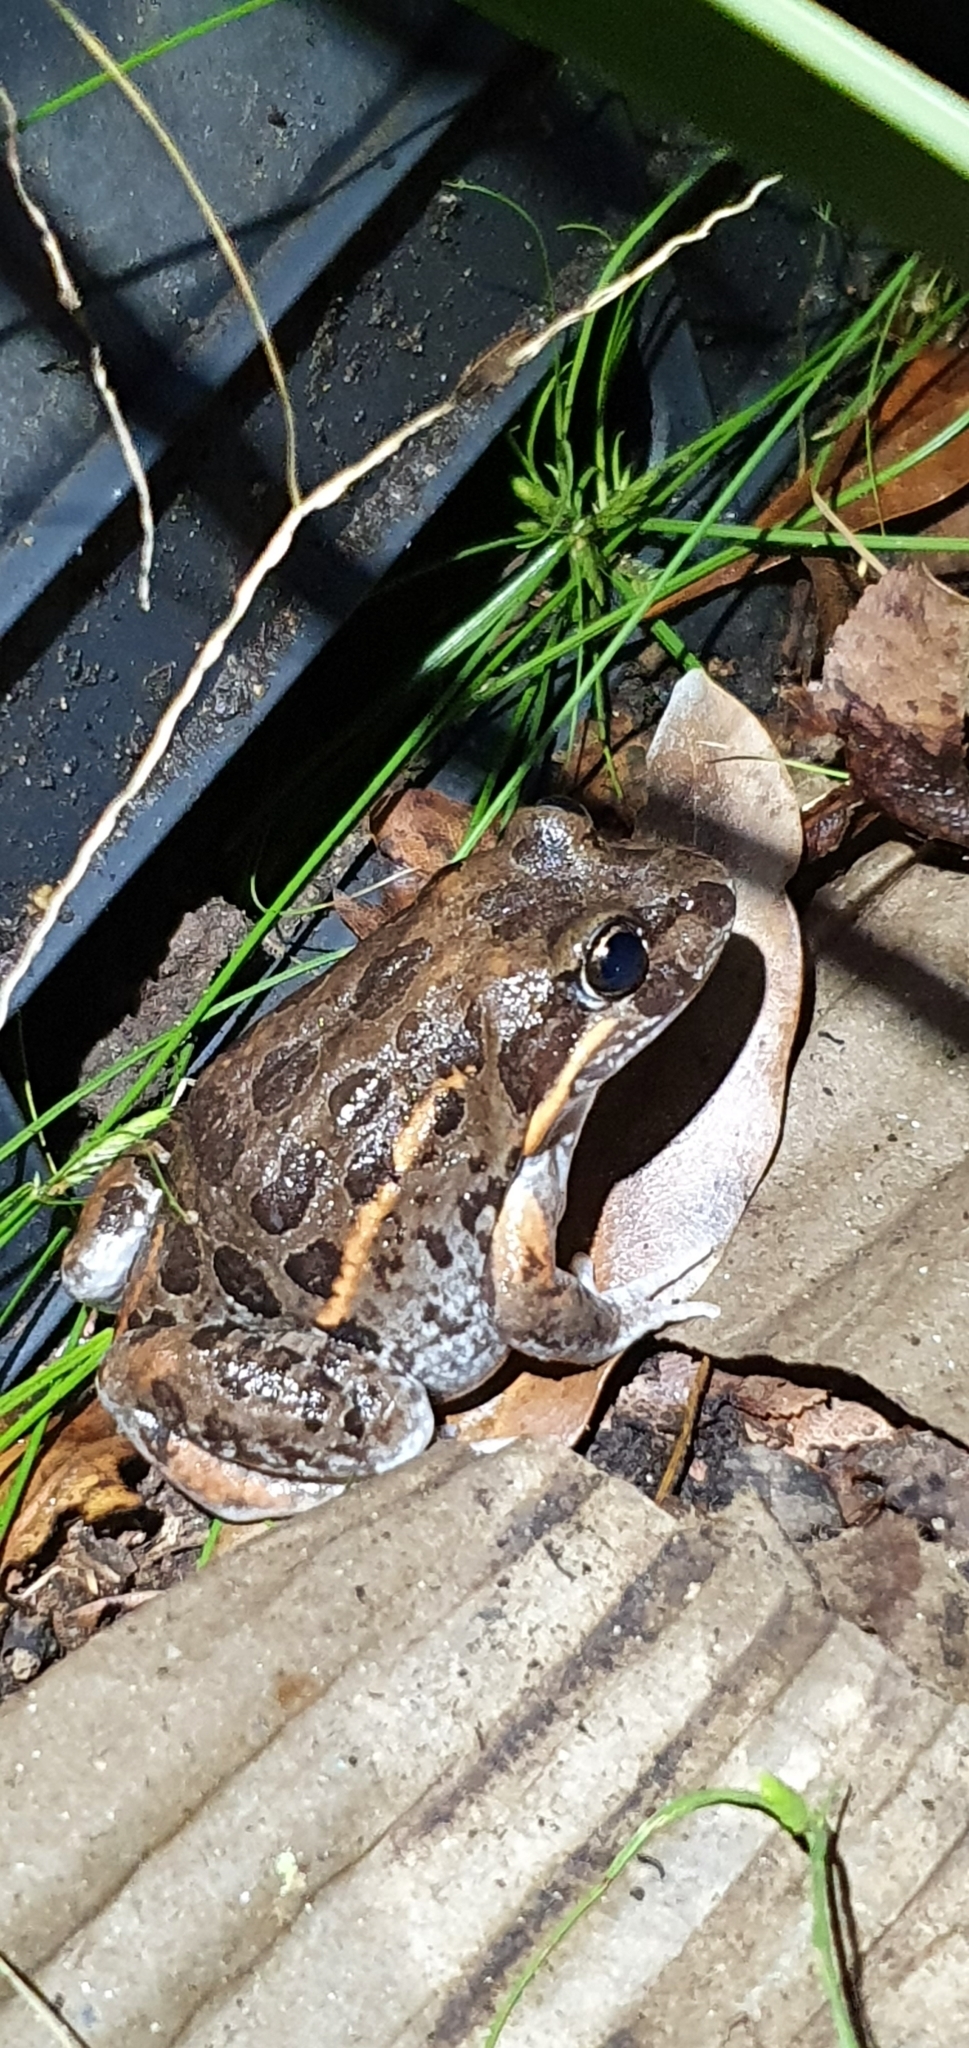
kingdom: Animalia
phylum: Chordata
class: Amphibia
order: Anura
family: Limnodynastidae
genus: Limnodynastes
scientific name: Limnodynastes salmini
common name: Salmon-striped frog
